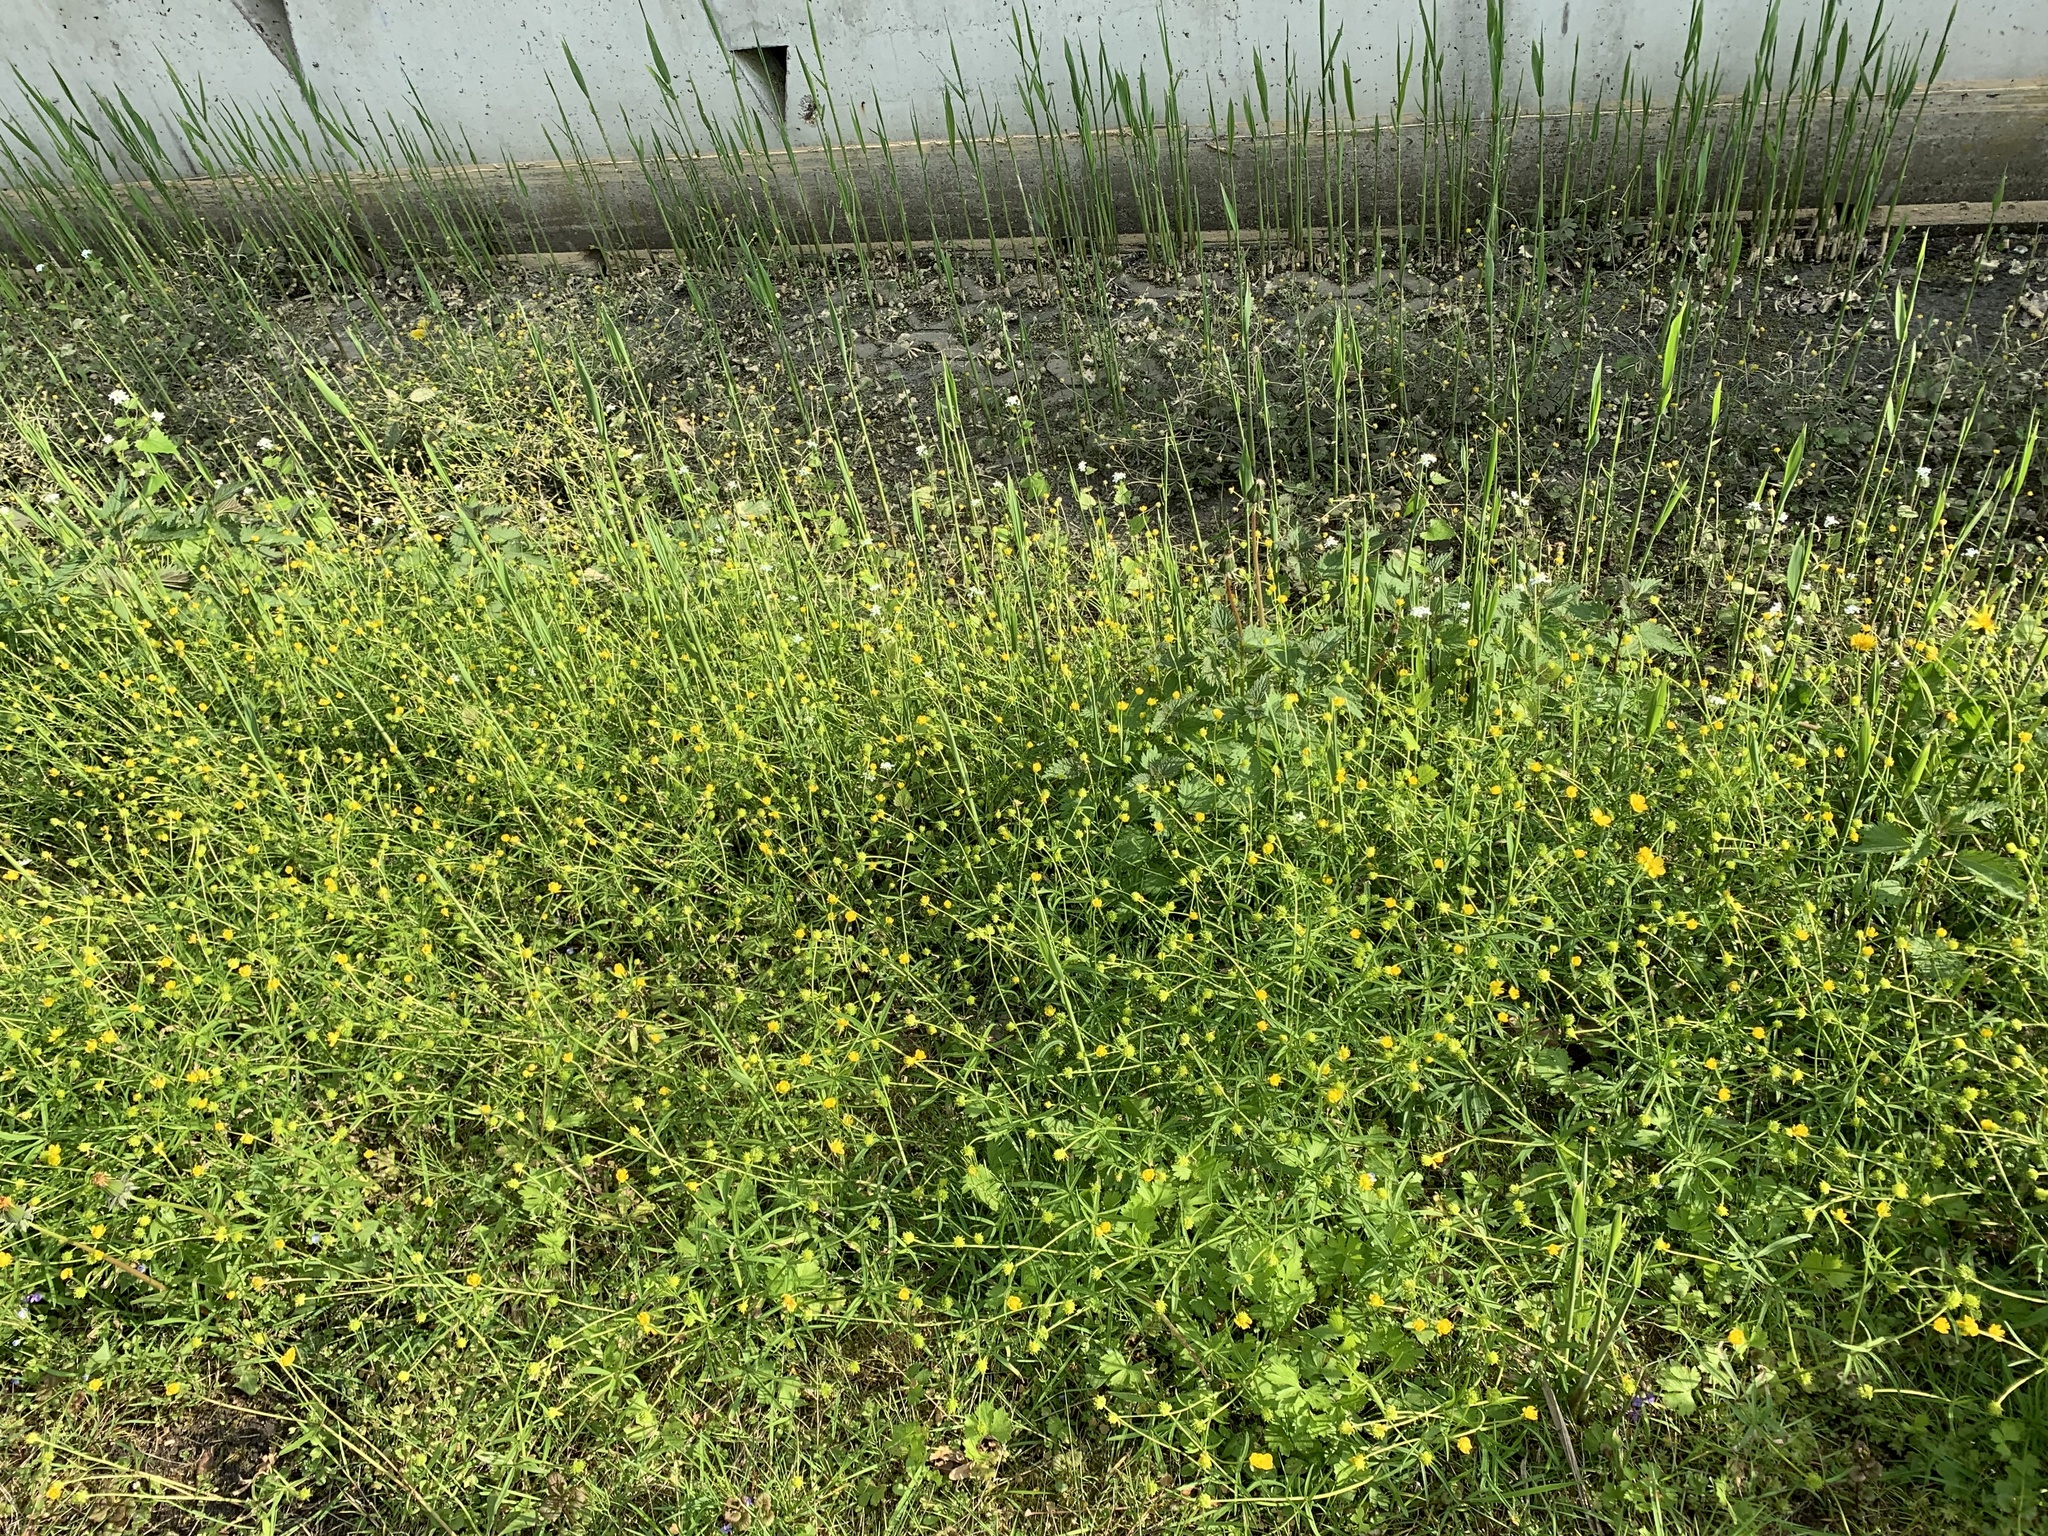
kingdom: Plantae
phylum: Tracheophyta
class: Magnoliopsida
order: Ranunculales
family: Ranunculaceae
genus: Ranunculus
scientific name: Ranunculus auricomus
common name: Goldilocks buttercup
